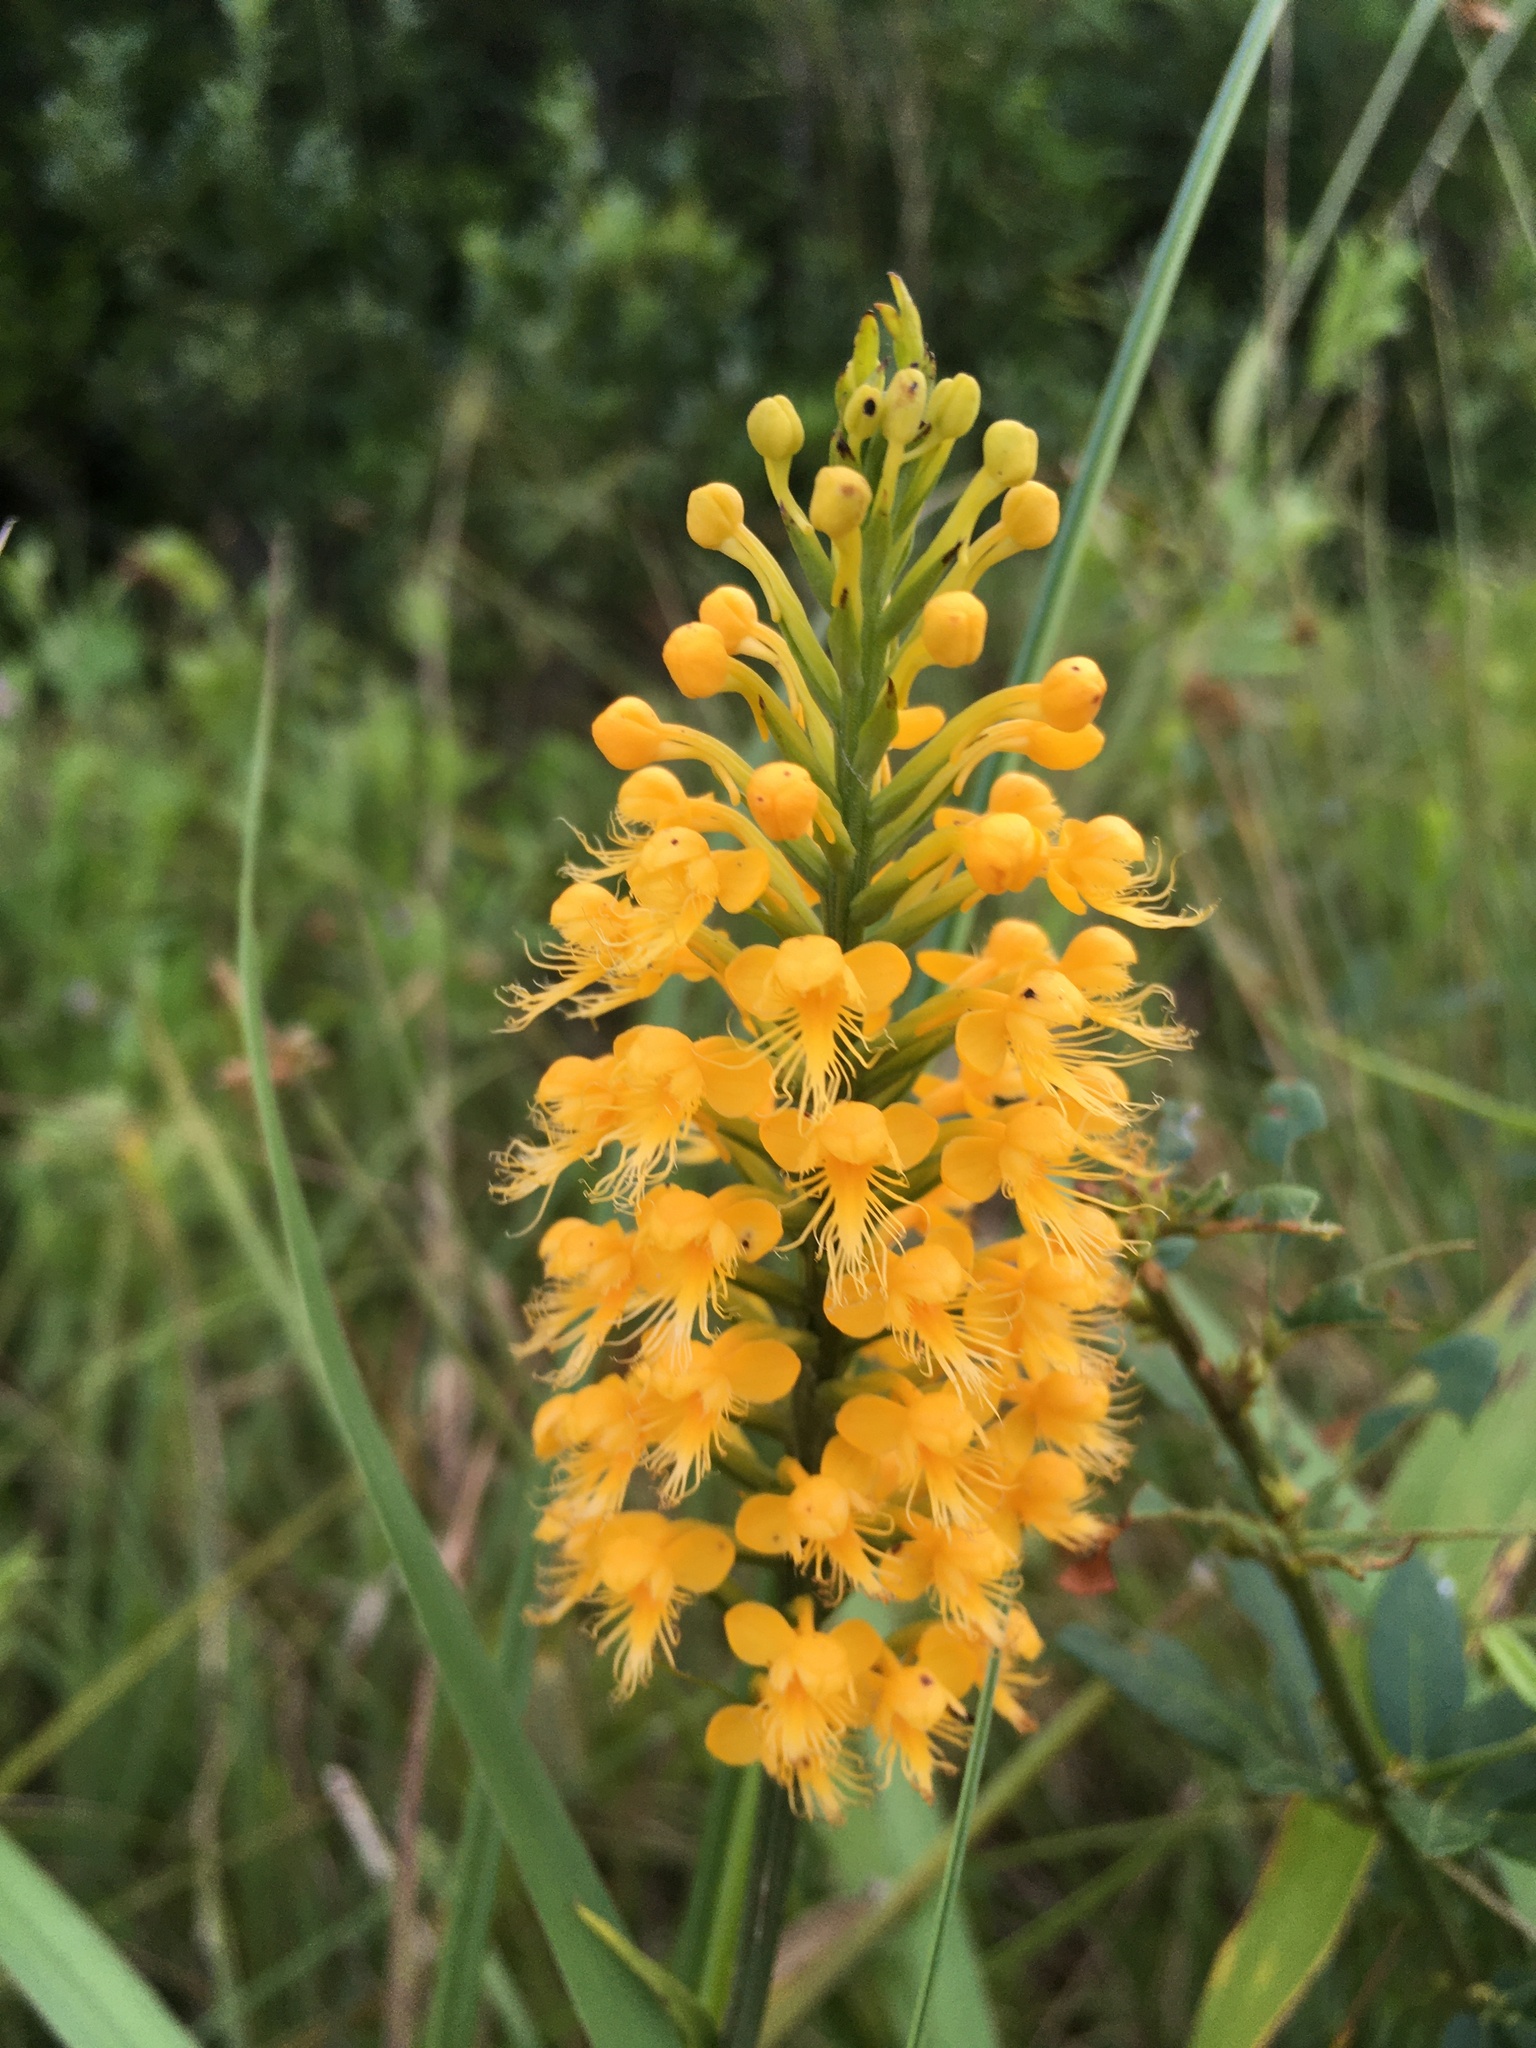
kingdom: Plantae
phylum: Tracheophyta
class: Liliopsida
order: Asparagales
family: Orchidaceae
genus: Platanthera
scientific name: Platanthera cristata
